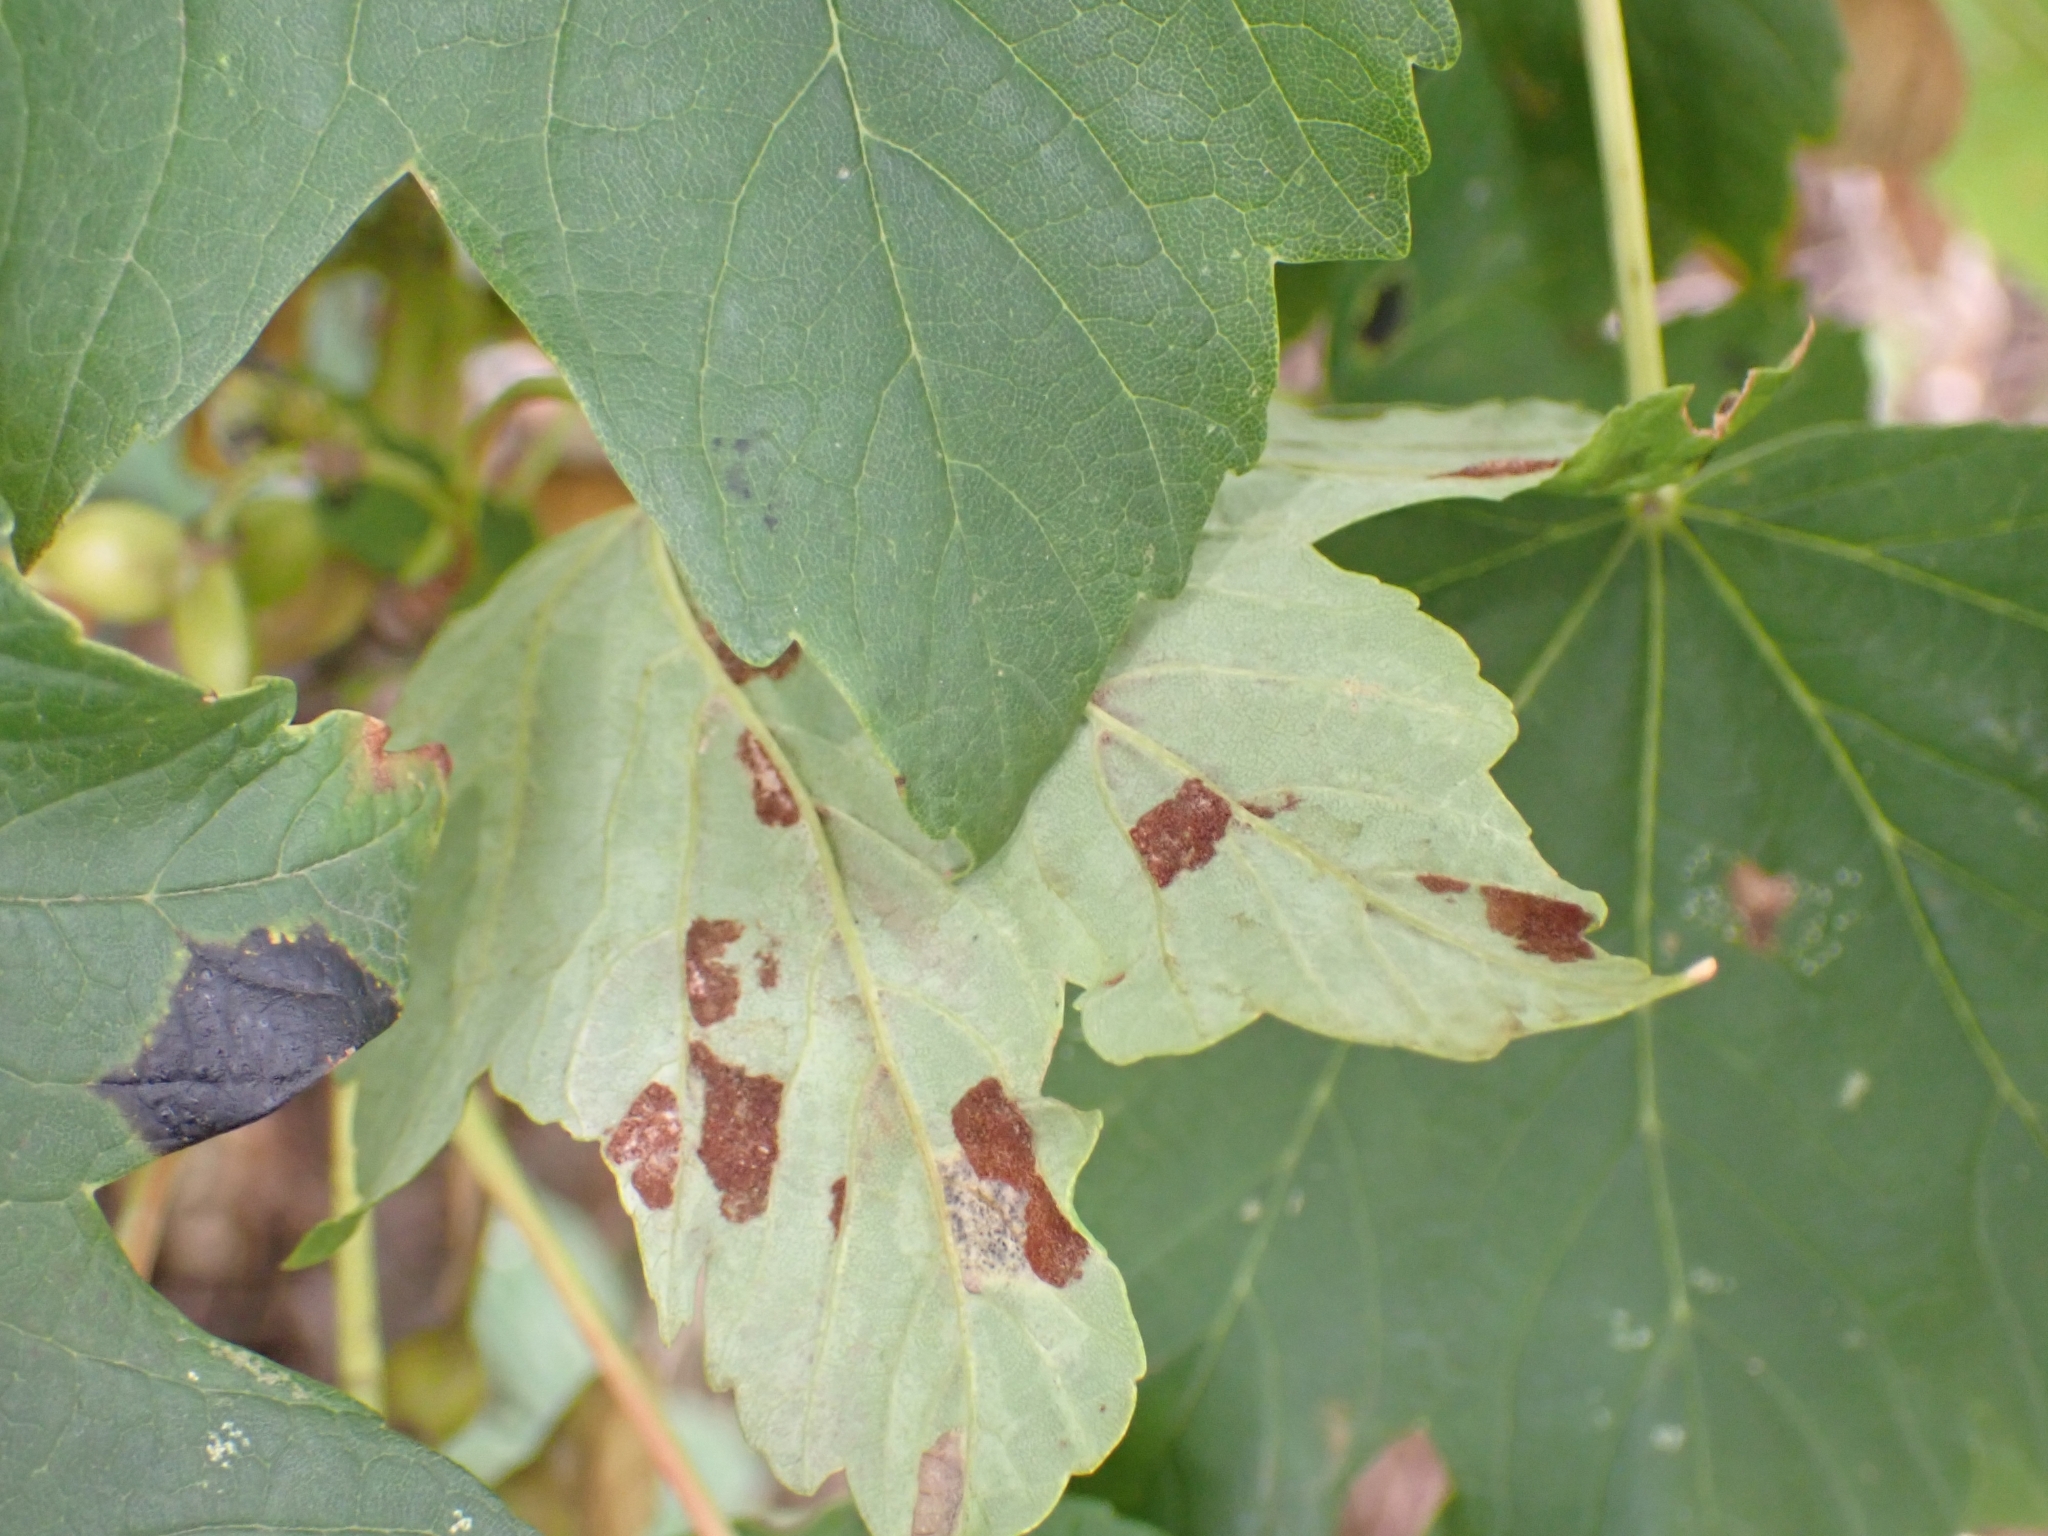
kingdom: Animalia
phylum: Arthropoda
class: Arachnida
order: Trombidiformes
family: Eriophyidae
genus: Aceria
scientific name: Aceria pseudoplatani
